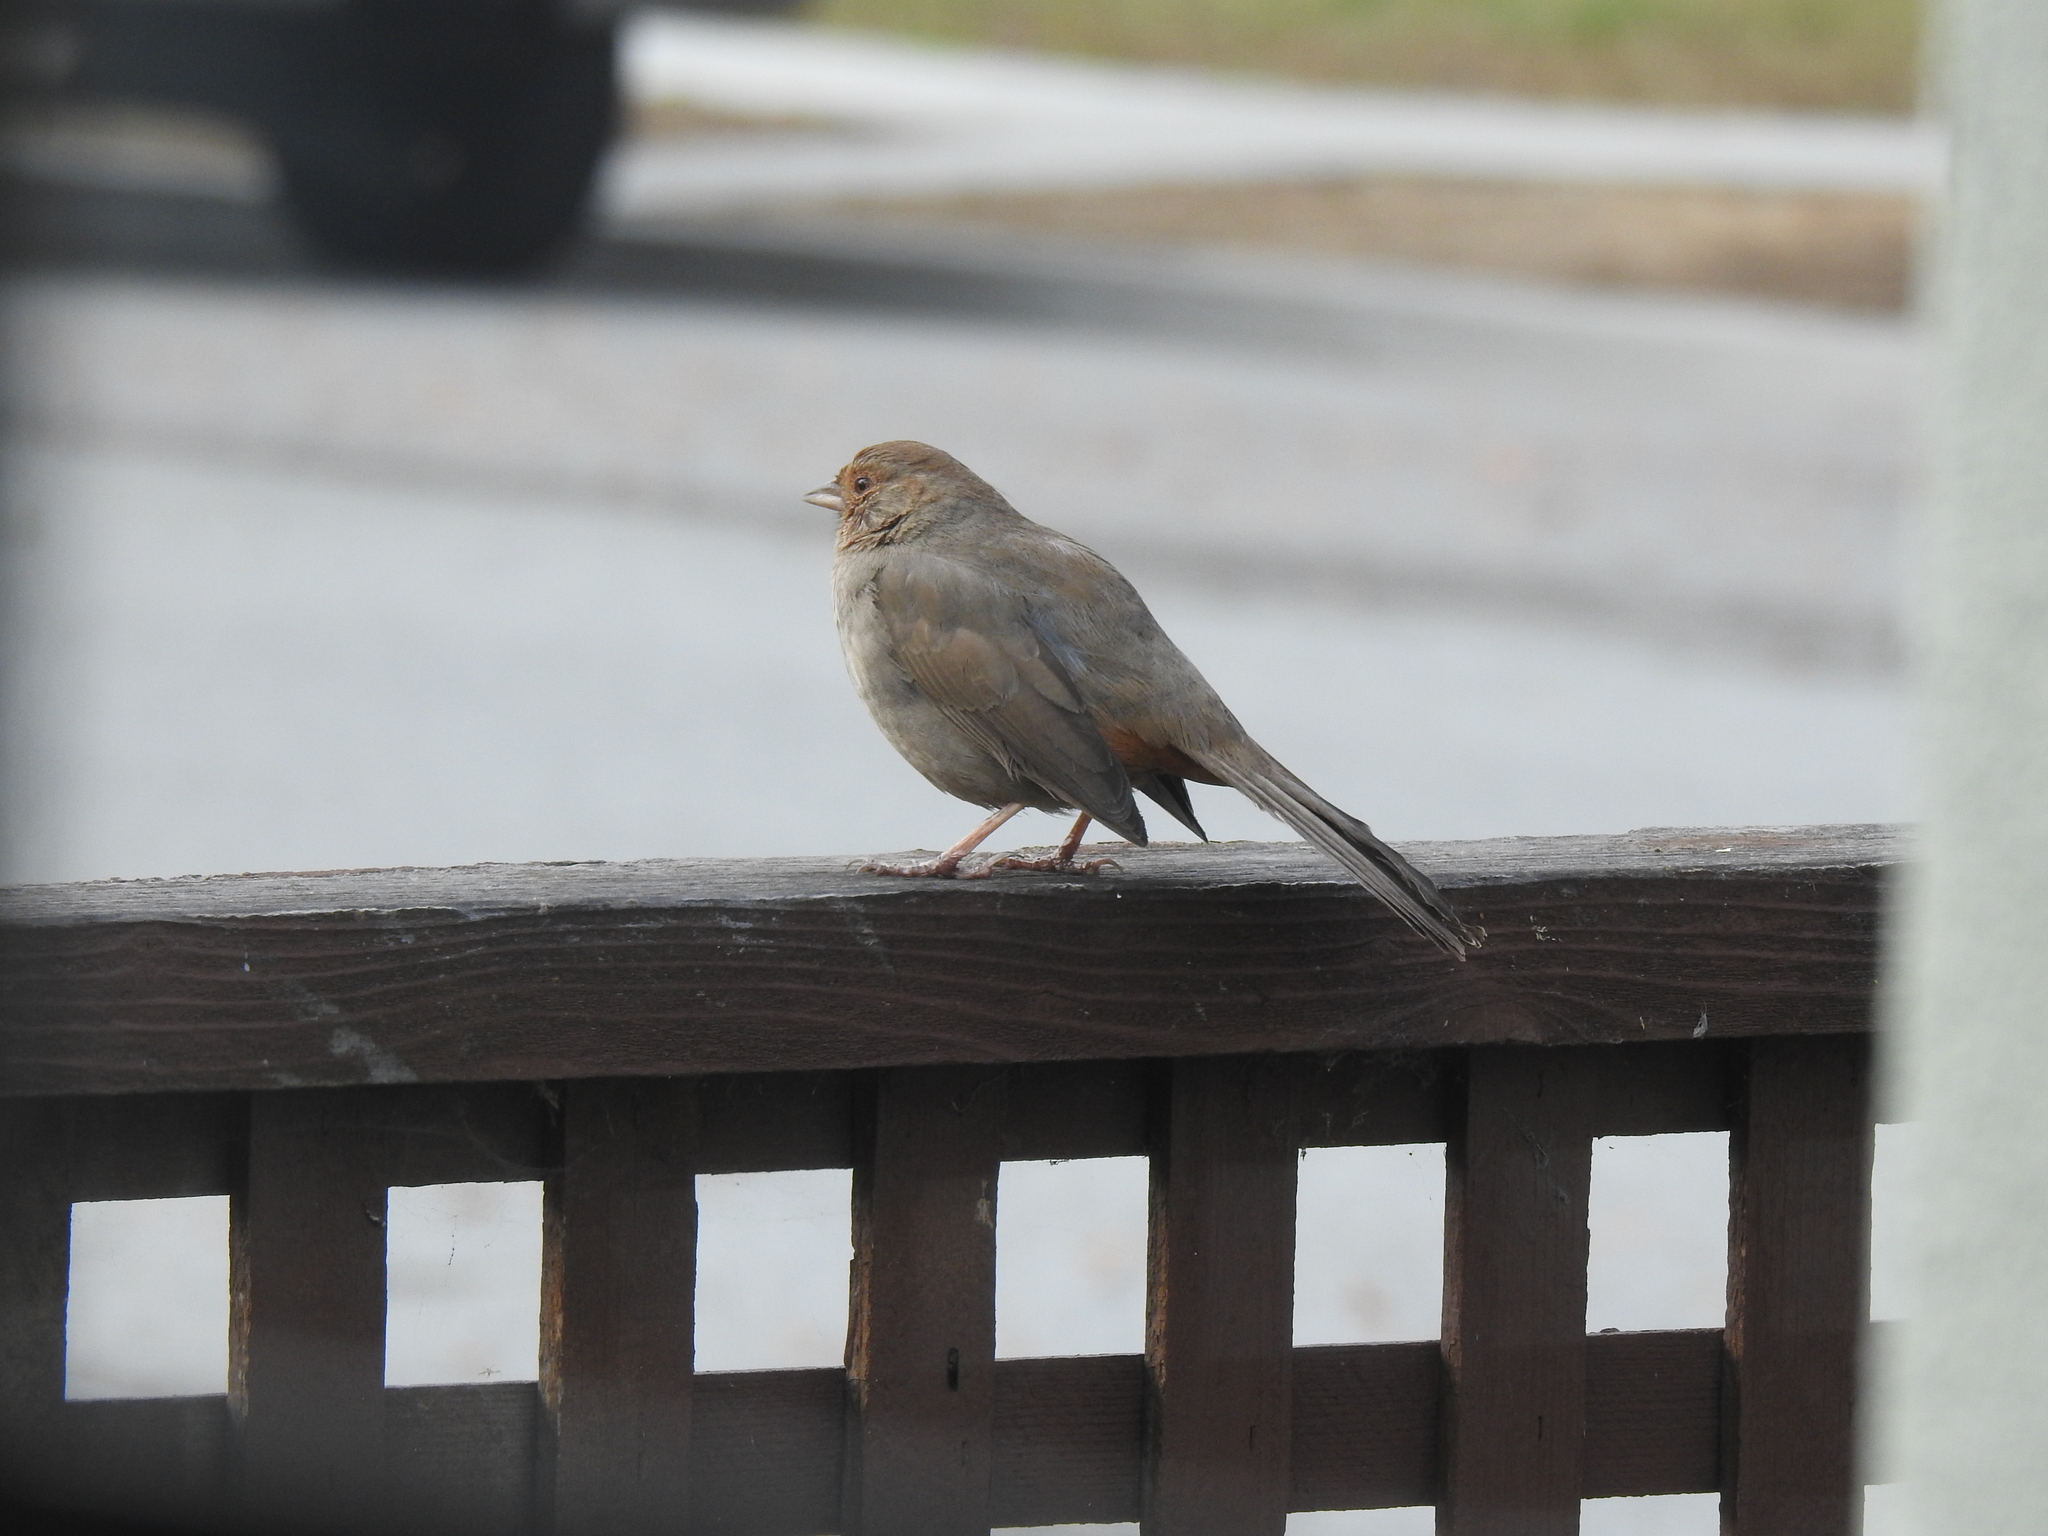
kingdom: Animalia
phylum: Chordata
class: Aves
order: Passeriformes
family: Passerellidae
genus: Melozone
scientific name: Melozone crissalis
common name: California towhee
